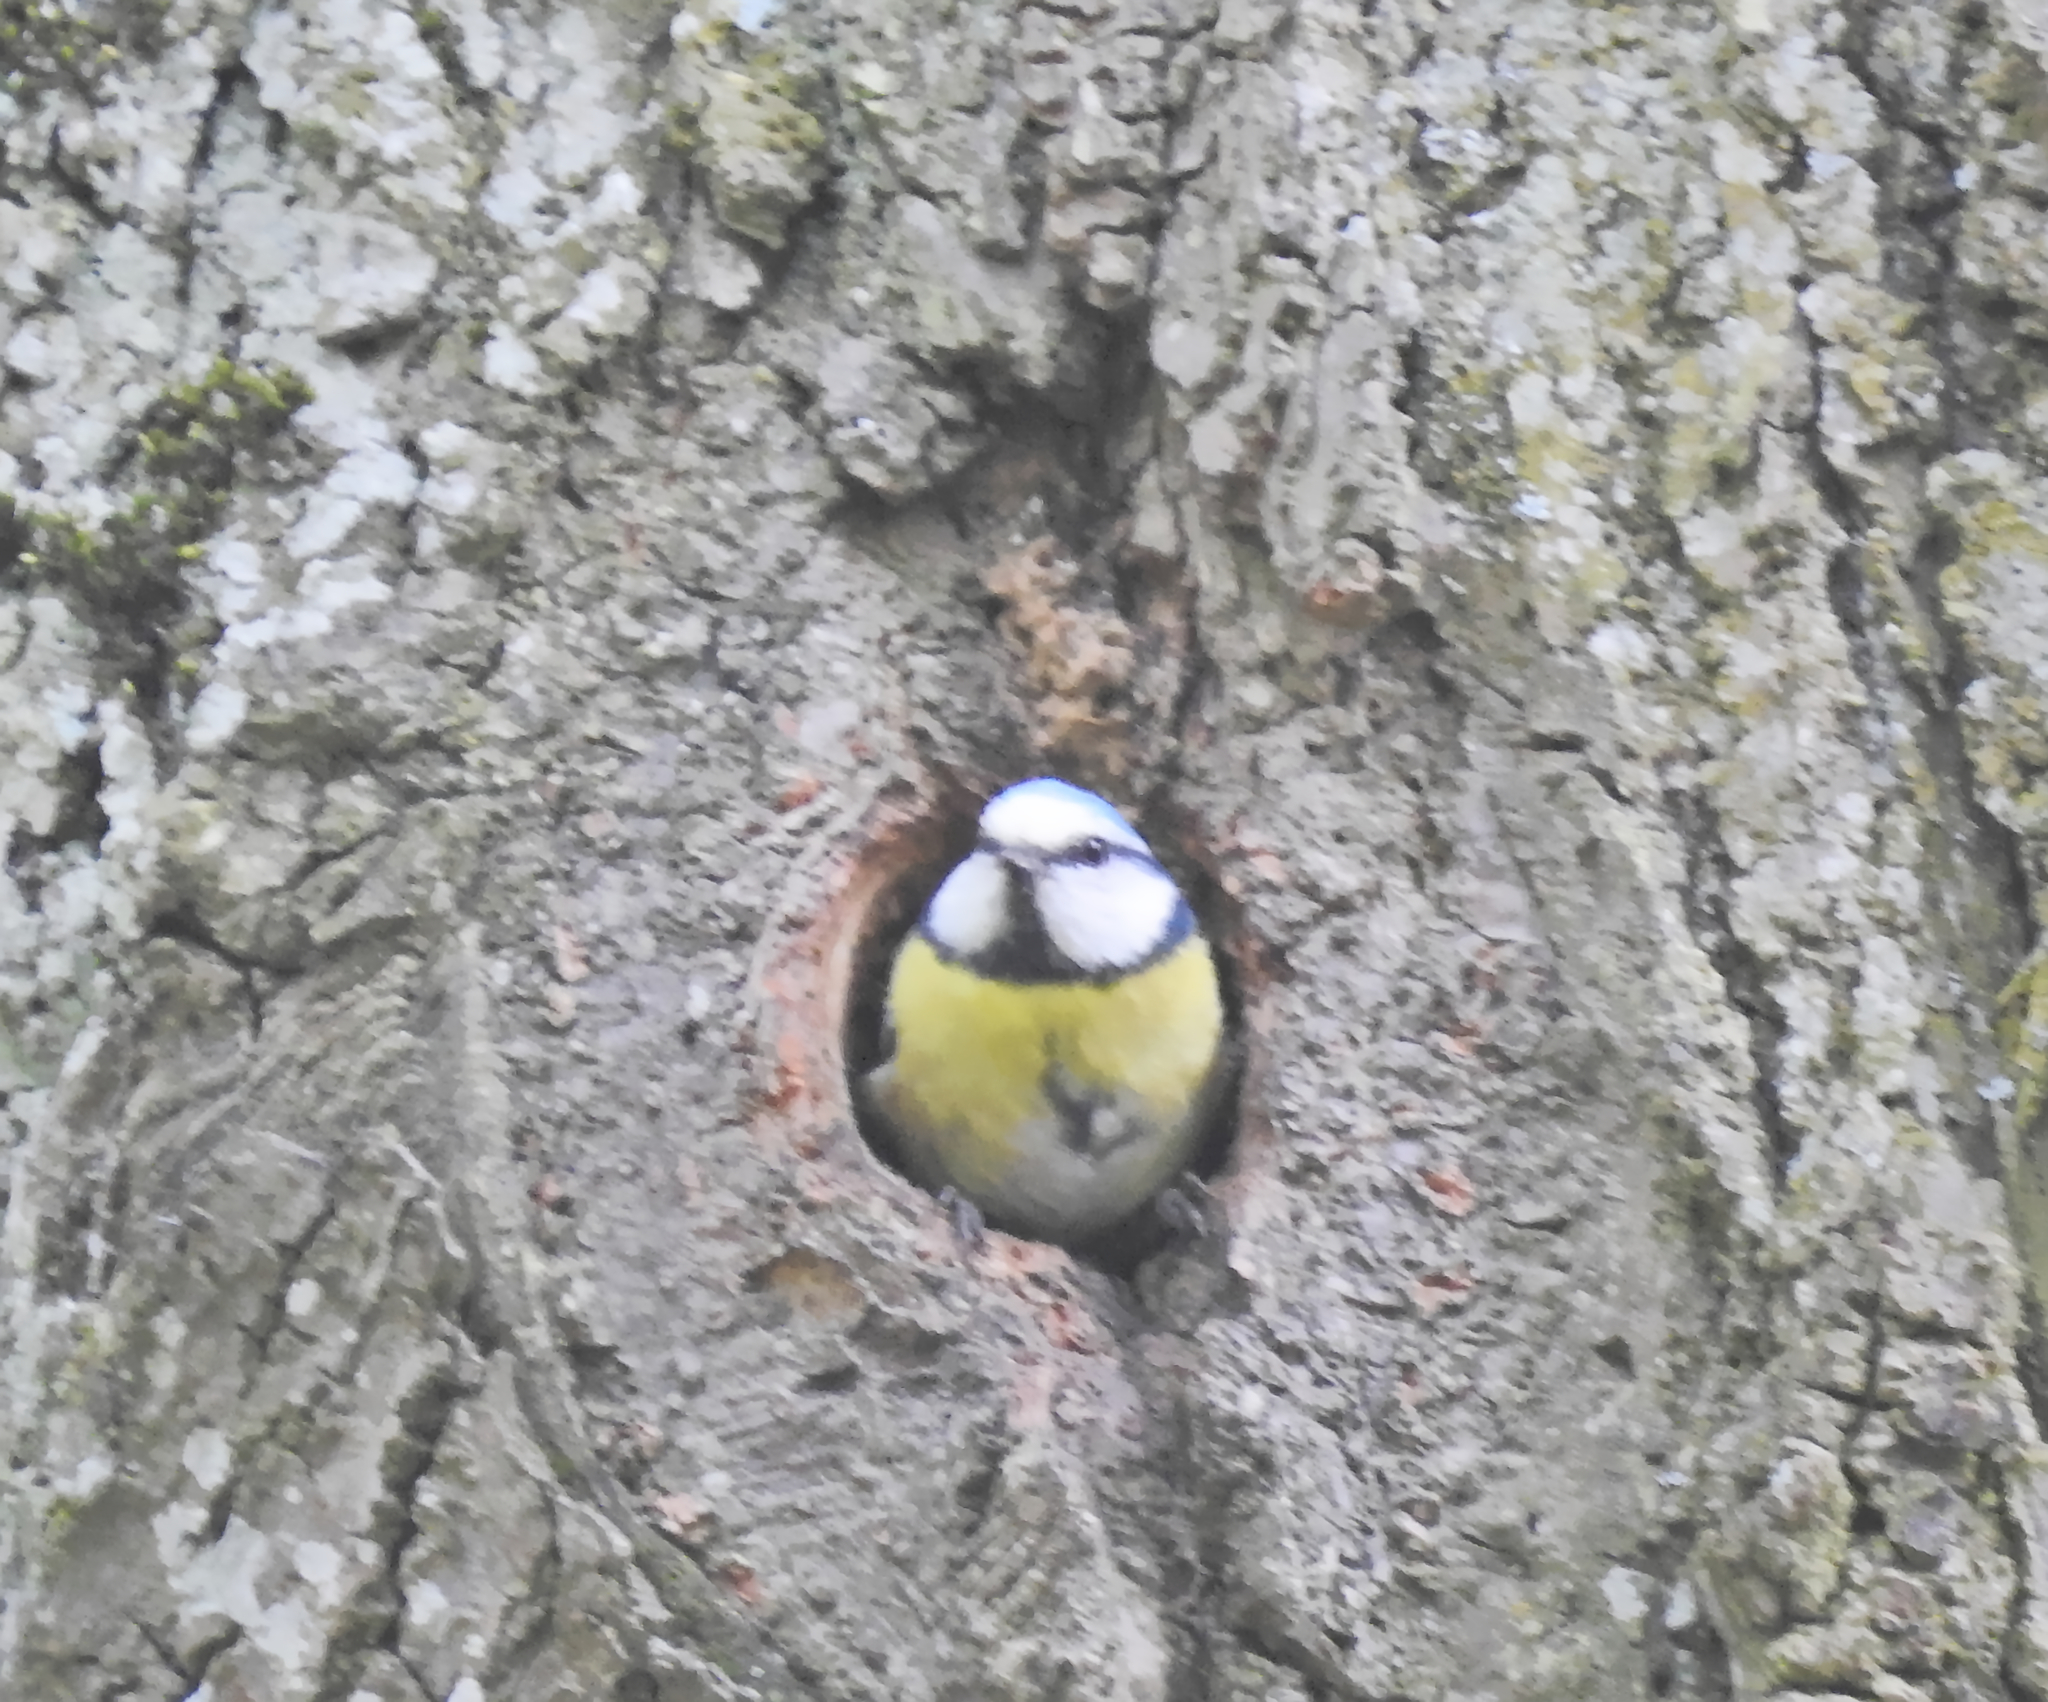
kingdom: Animalia
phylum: Chordata
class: Aves
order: Passeriformes
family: Paridae
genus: Cyanistes
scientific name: Cyanistes caeruleus
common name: Eurasian blue tit
